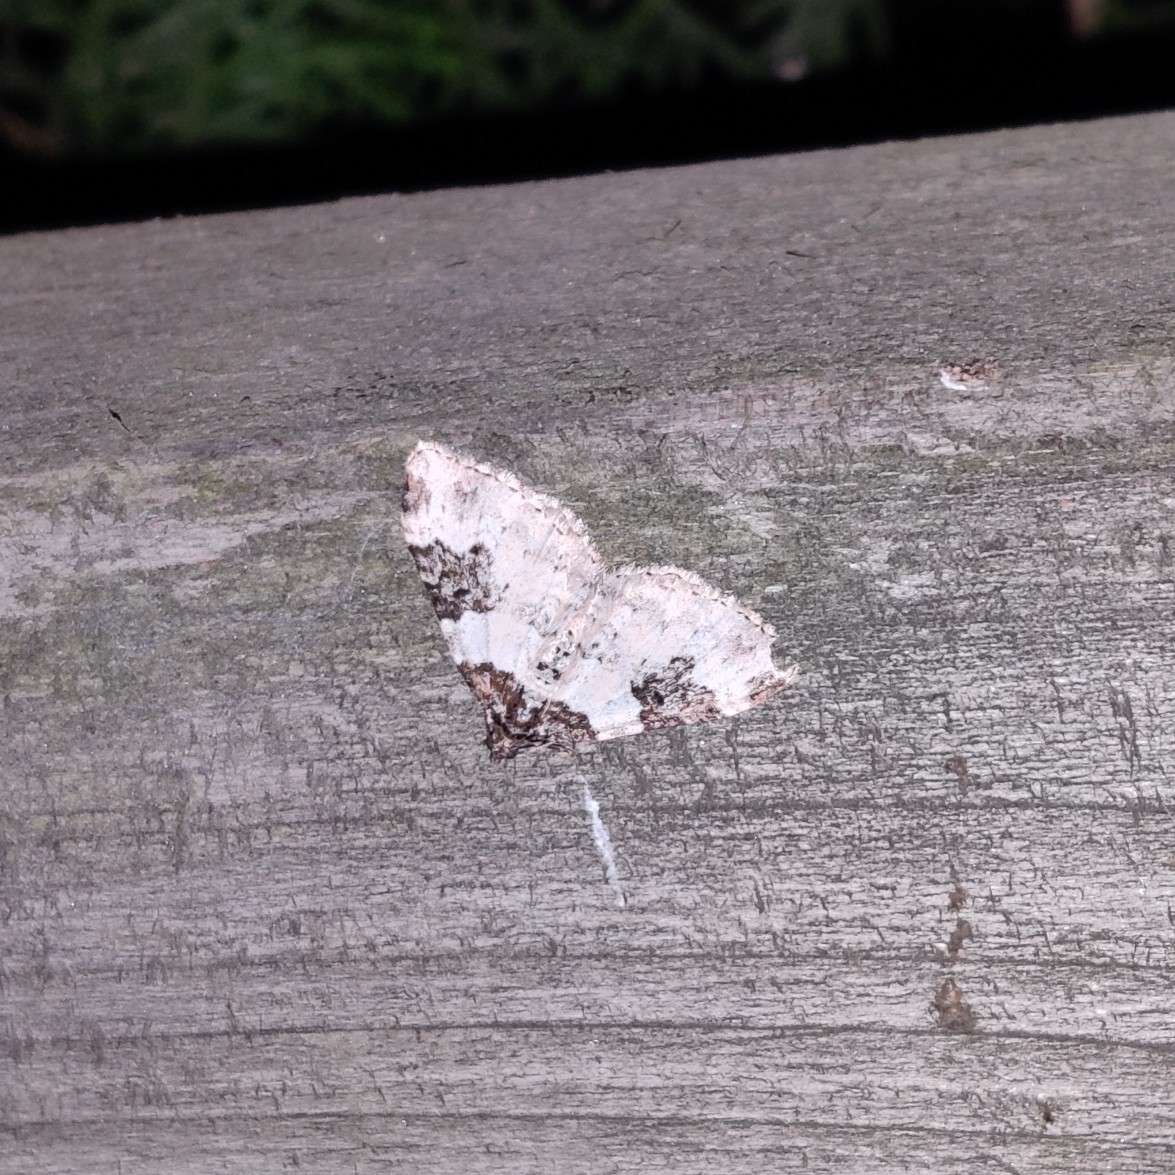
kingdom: Animalia
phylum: Arthropoda
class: Insecta
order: Lepidoptera
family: Geometridae
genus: Xanthorhoe
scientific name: Xanthorhoe fluctuata
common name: Garden carpet
